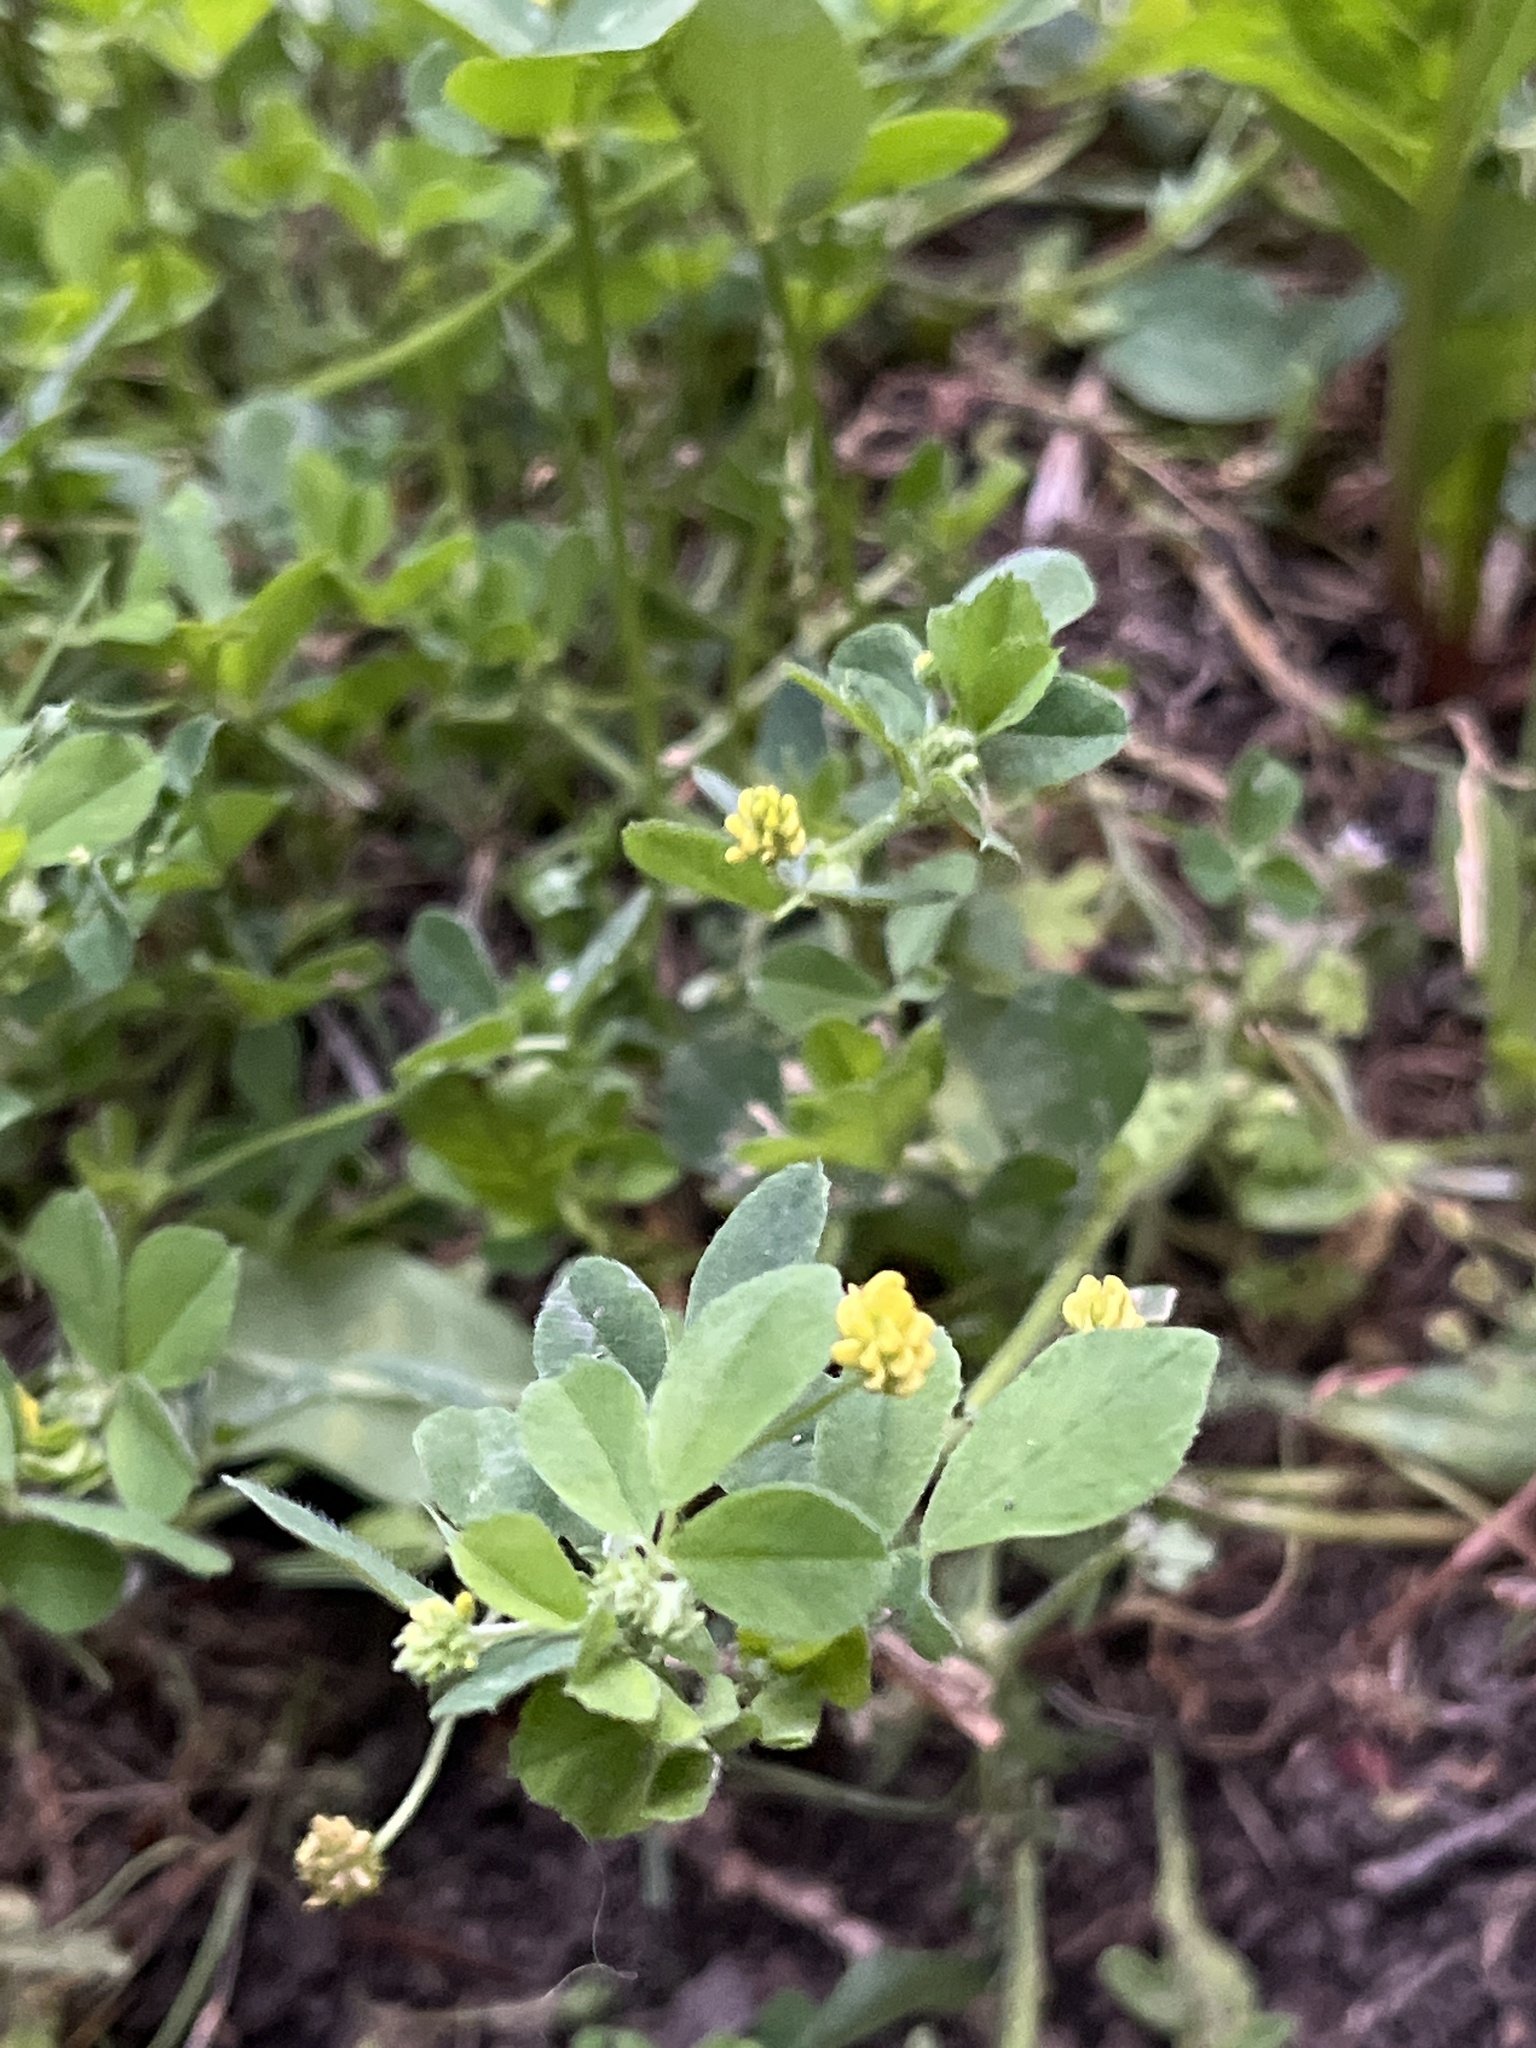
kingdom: Plantae
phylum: Tracheophyta
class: Magnoliopsida
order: Fabales
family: Fabaceae
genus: Medicago
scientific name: Medicago lupulina
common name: Black medick
